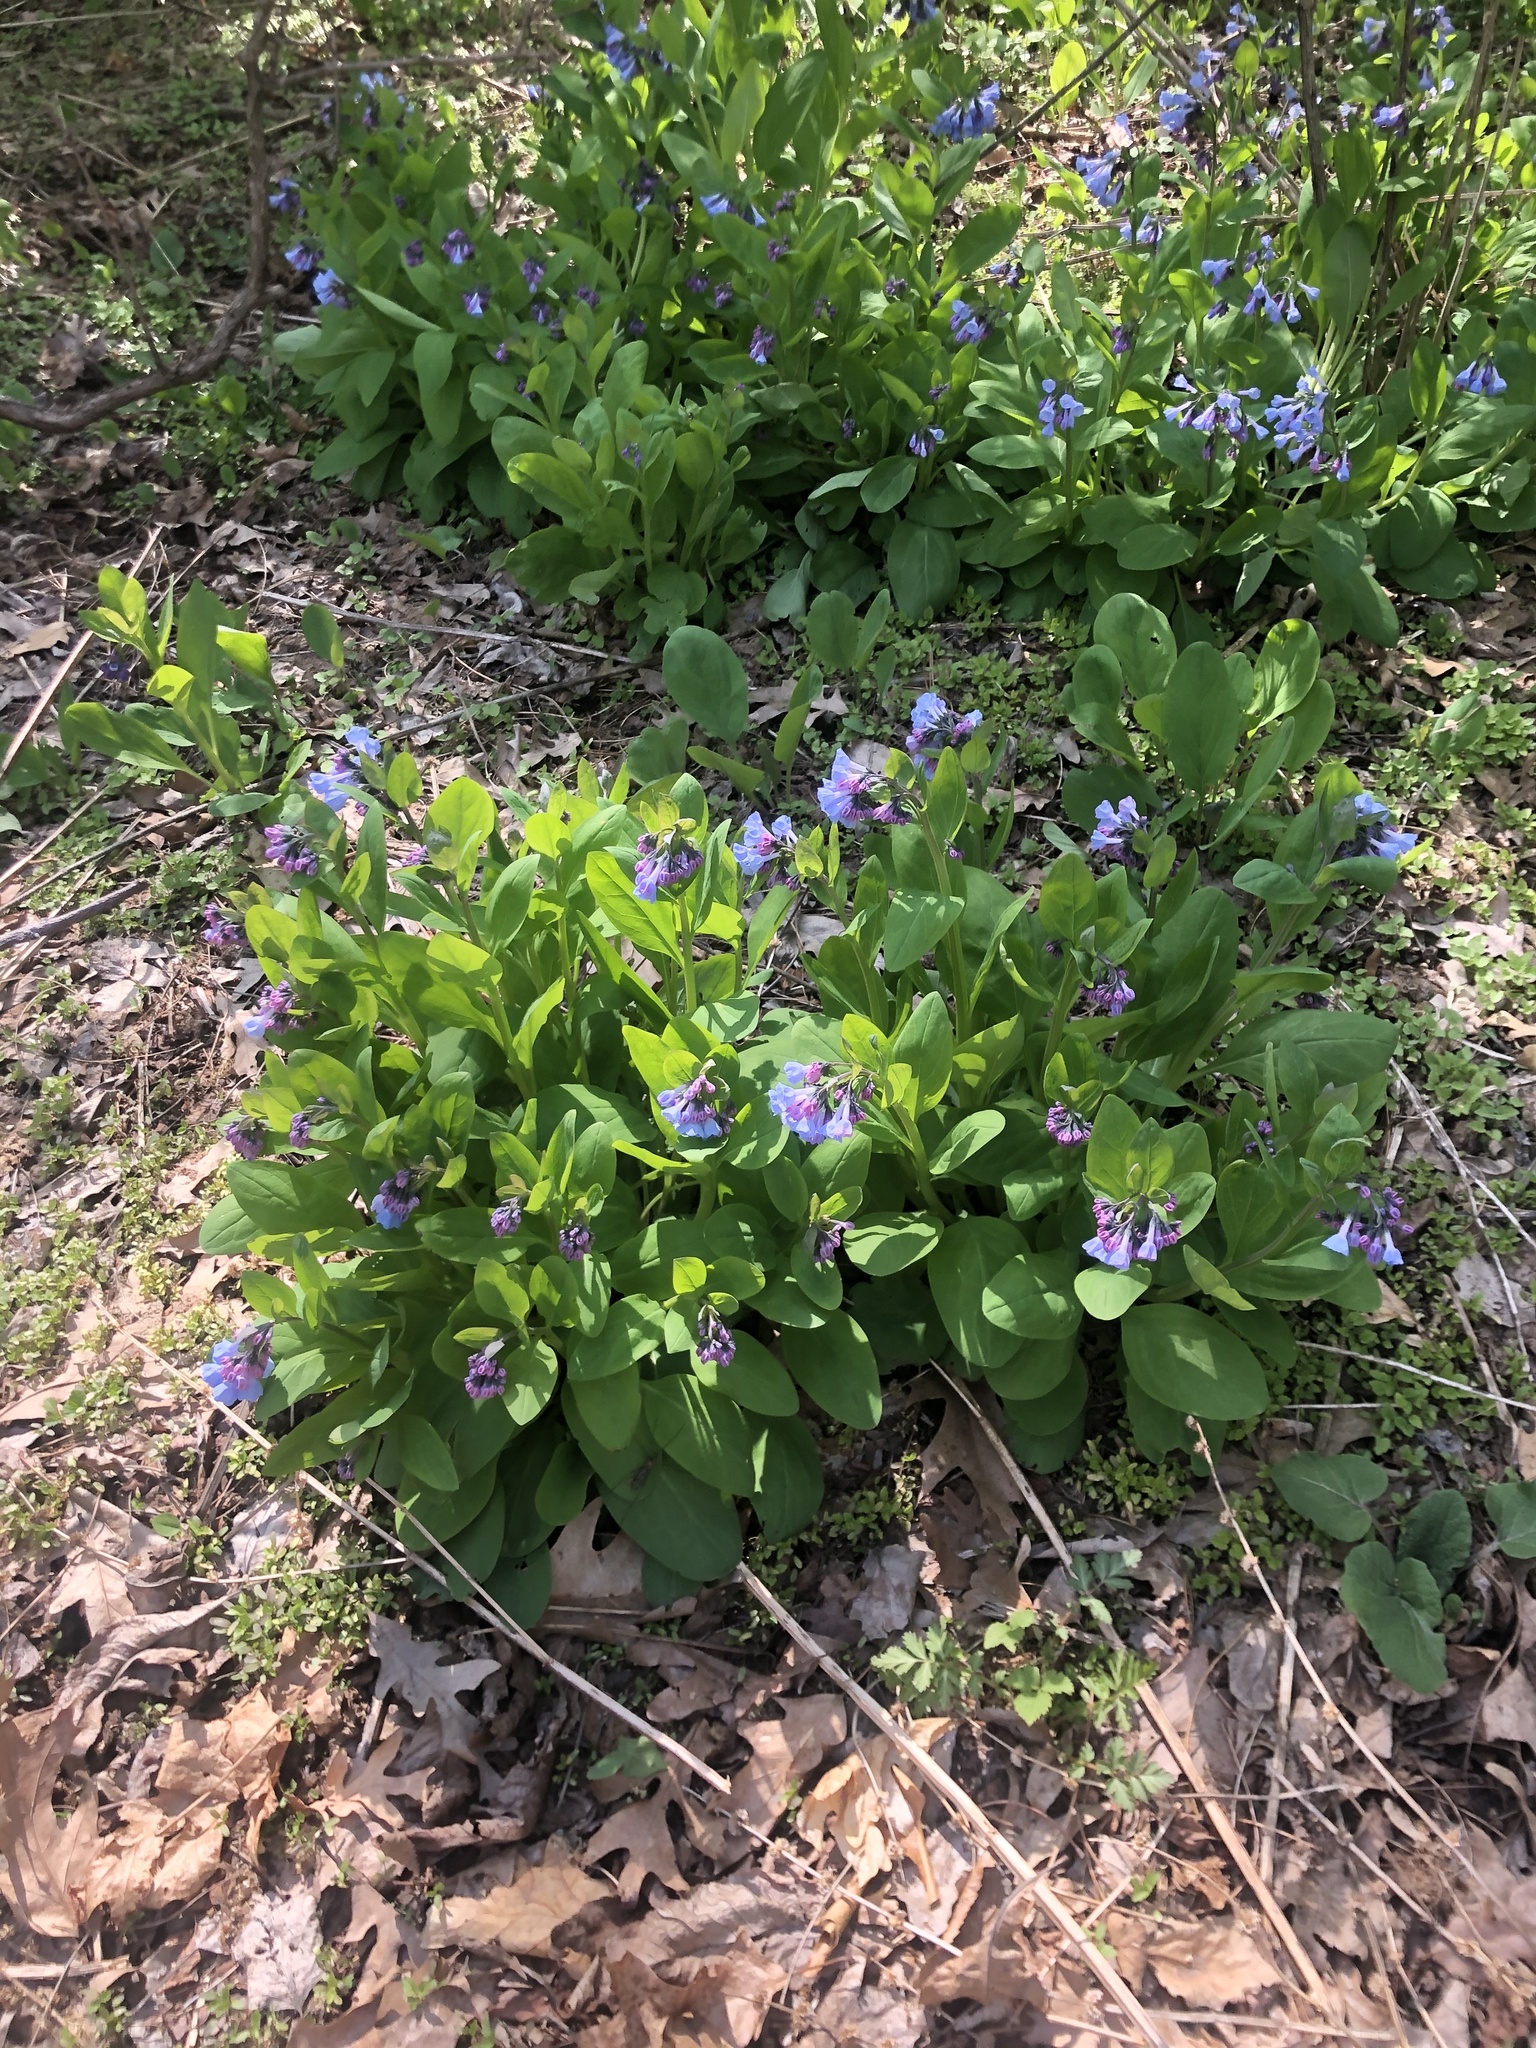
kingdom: Plantae
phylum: Tracheophyta
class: Magnoliopsida
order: Boraginales
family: Boraginaceae
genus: Mertensia
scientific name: Mertensia virginica
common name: Virginia bluebells
